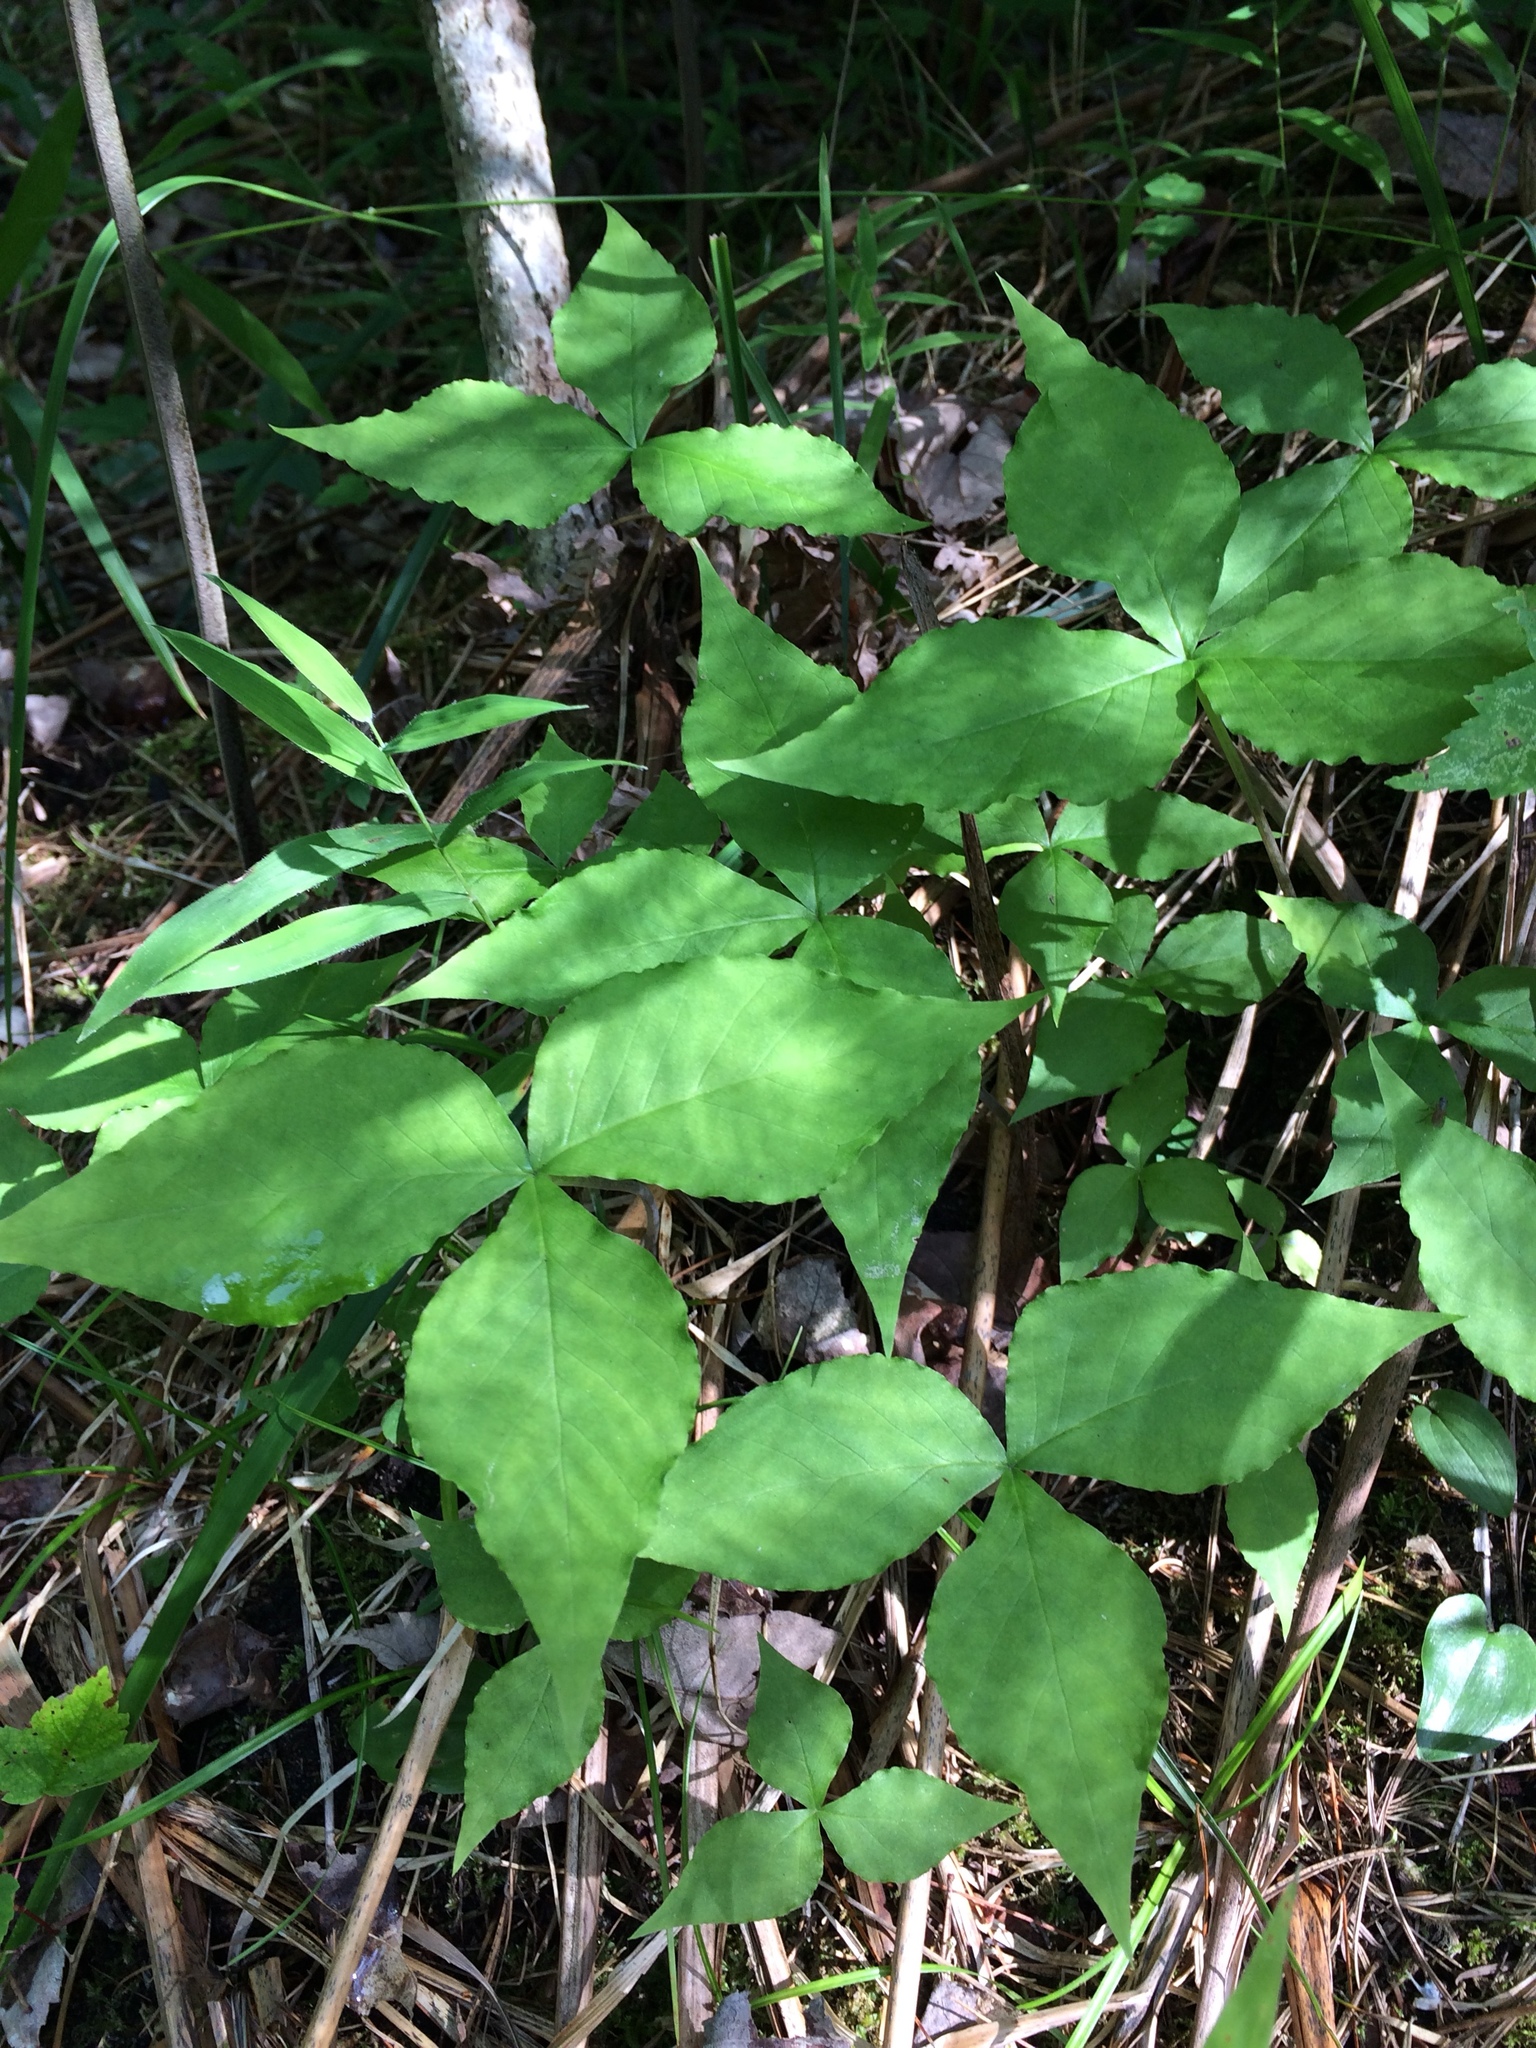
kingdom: Plantae
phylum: Tracheophyta
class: Liliopsida
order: Alismatales
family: Araceae
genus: Arisaema
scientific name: Arisaema triphyllum
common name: Jack-in-the-pulpit
